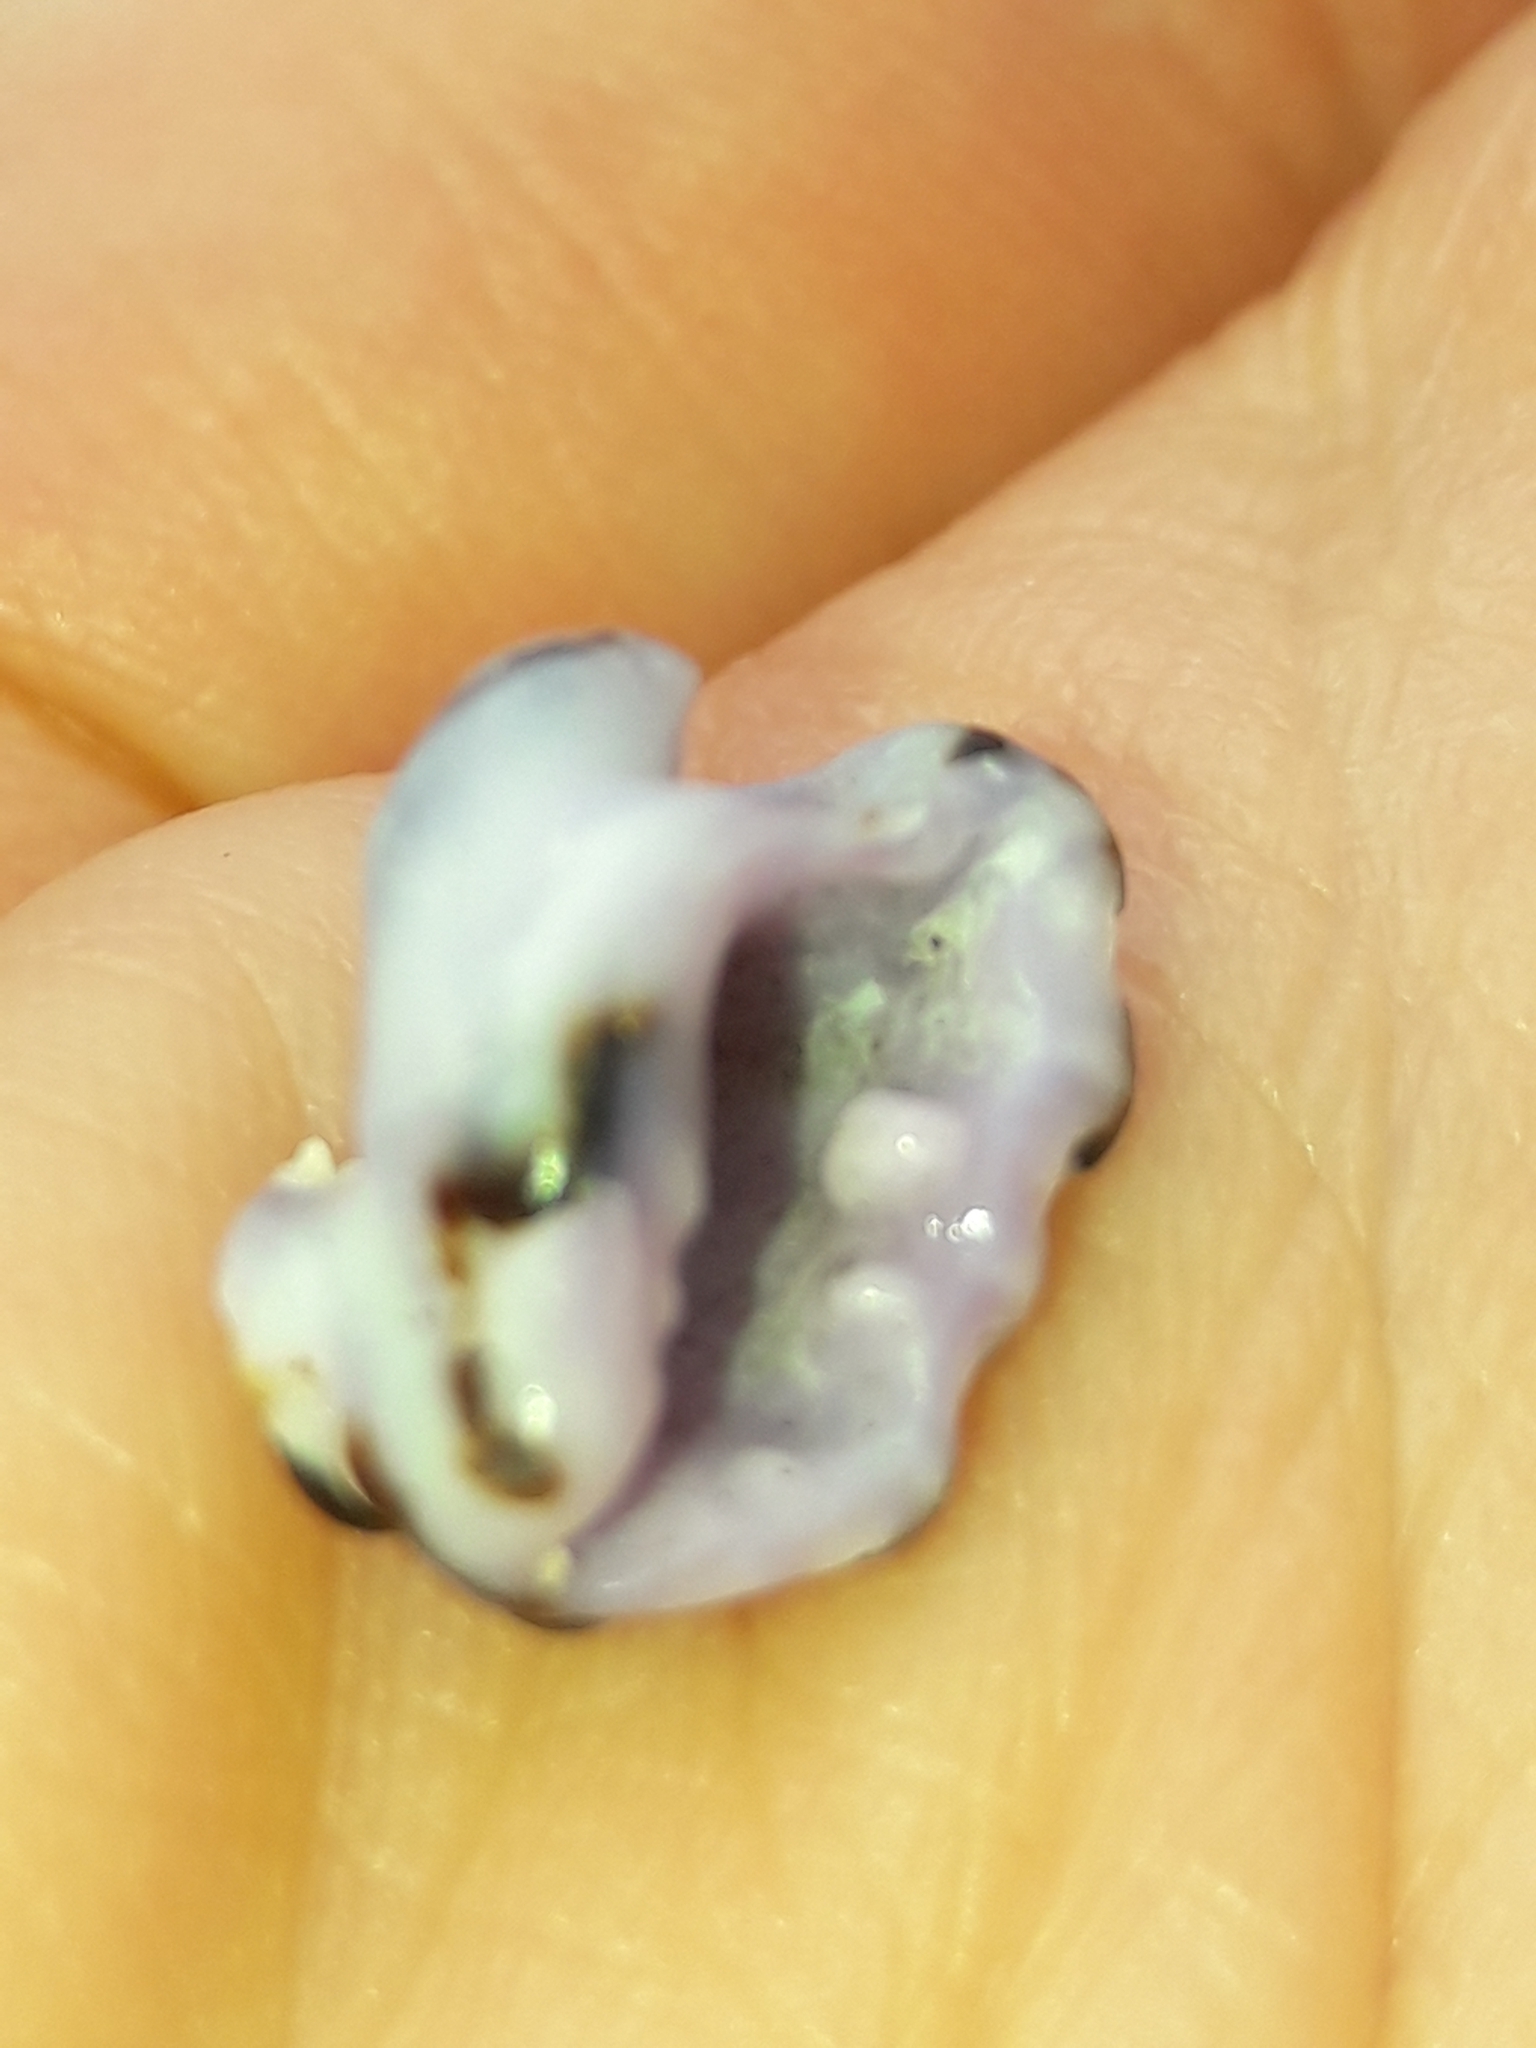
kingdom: Animalia
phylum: Mollusca
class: Gastropoda
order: Neogastropoda
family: Muricidae
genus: Morula
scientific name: Morula uva
